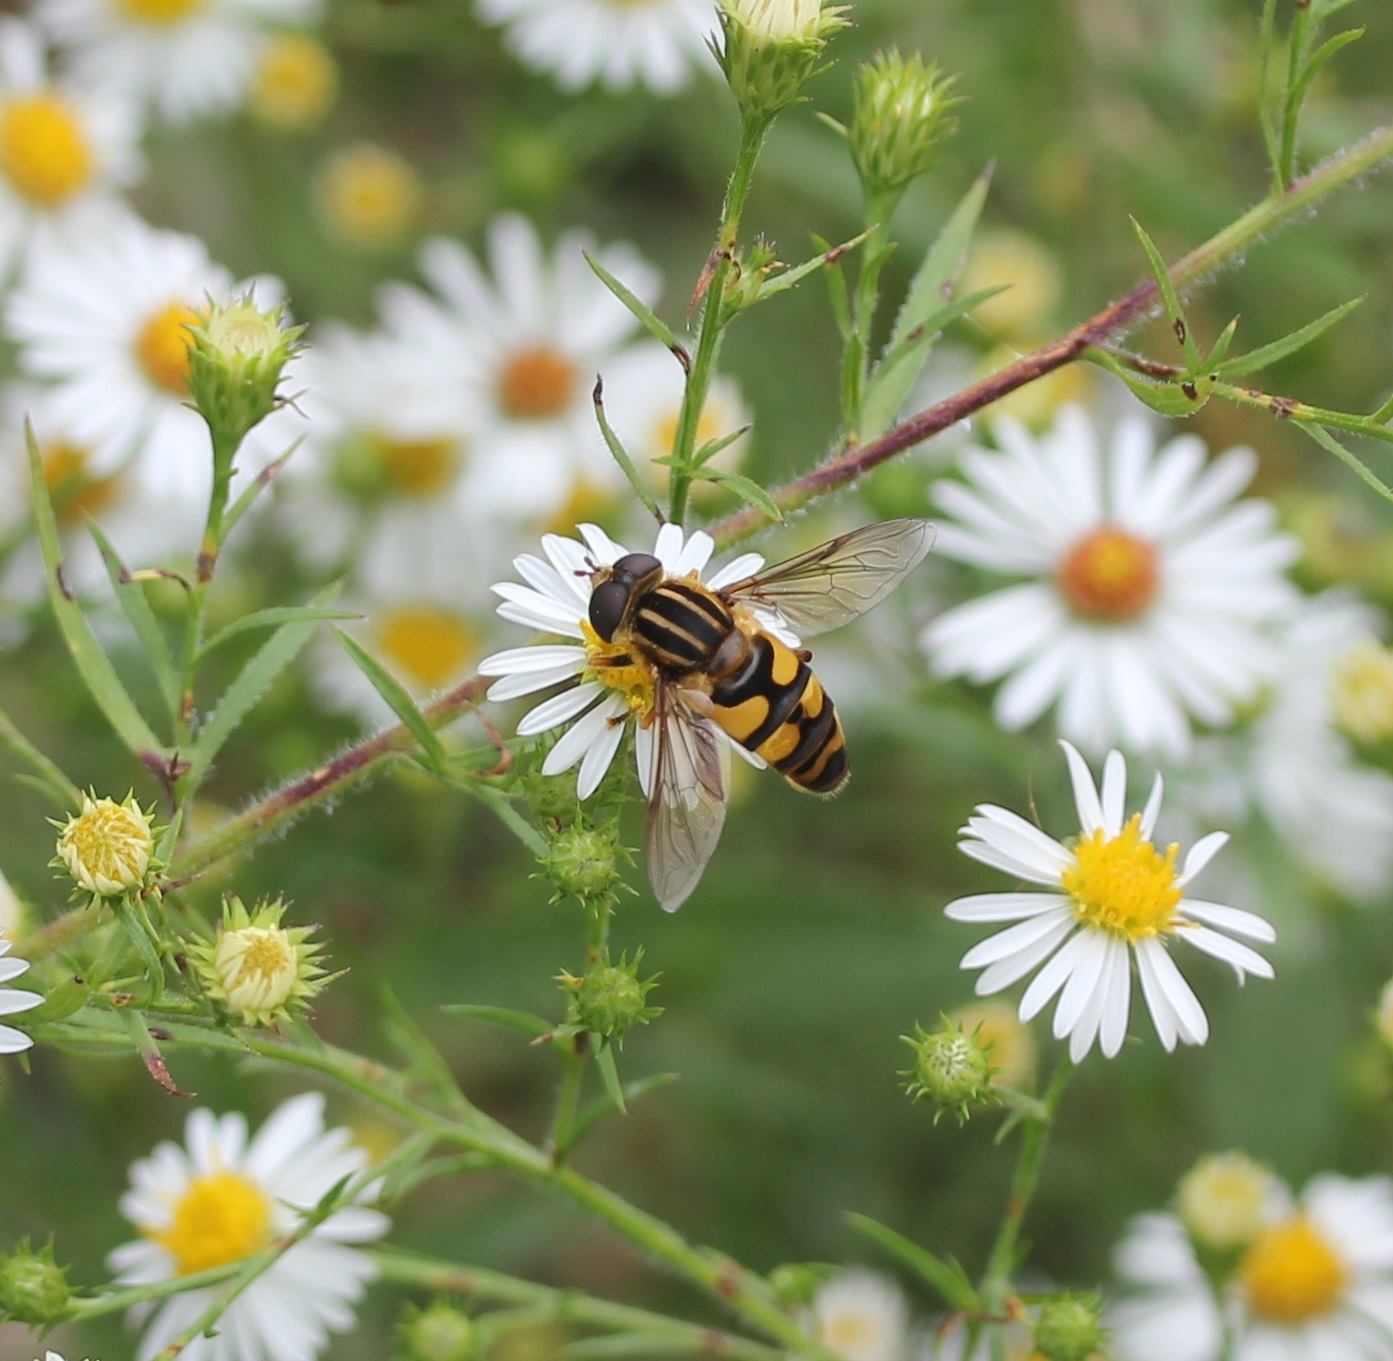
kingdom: Animalia
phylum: Arthropoda
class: Insecta
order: Diptera
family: Syrphidae
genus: Helophilus
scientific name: Helophilus fasciatus
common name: Narrow-headed marsh fly
